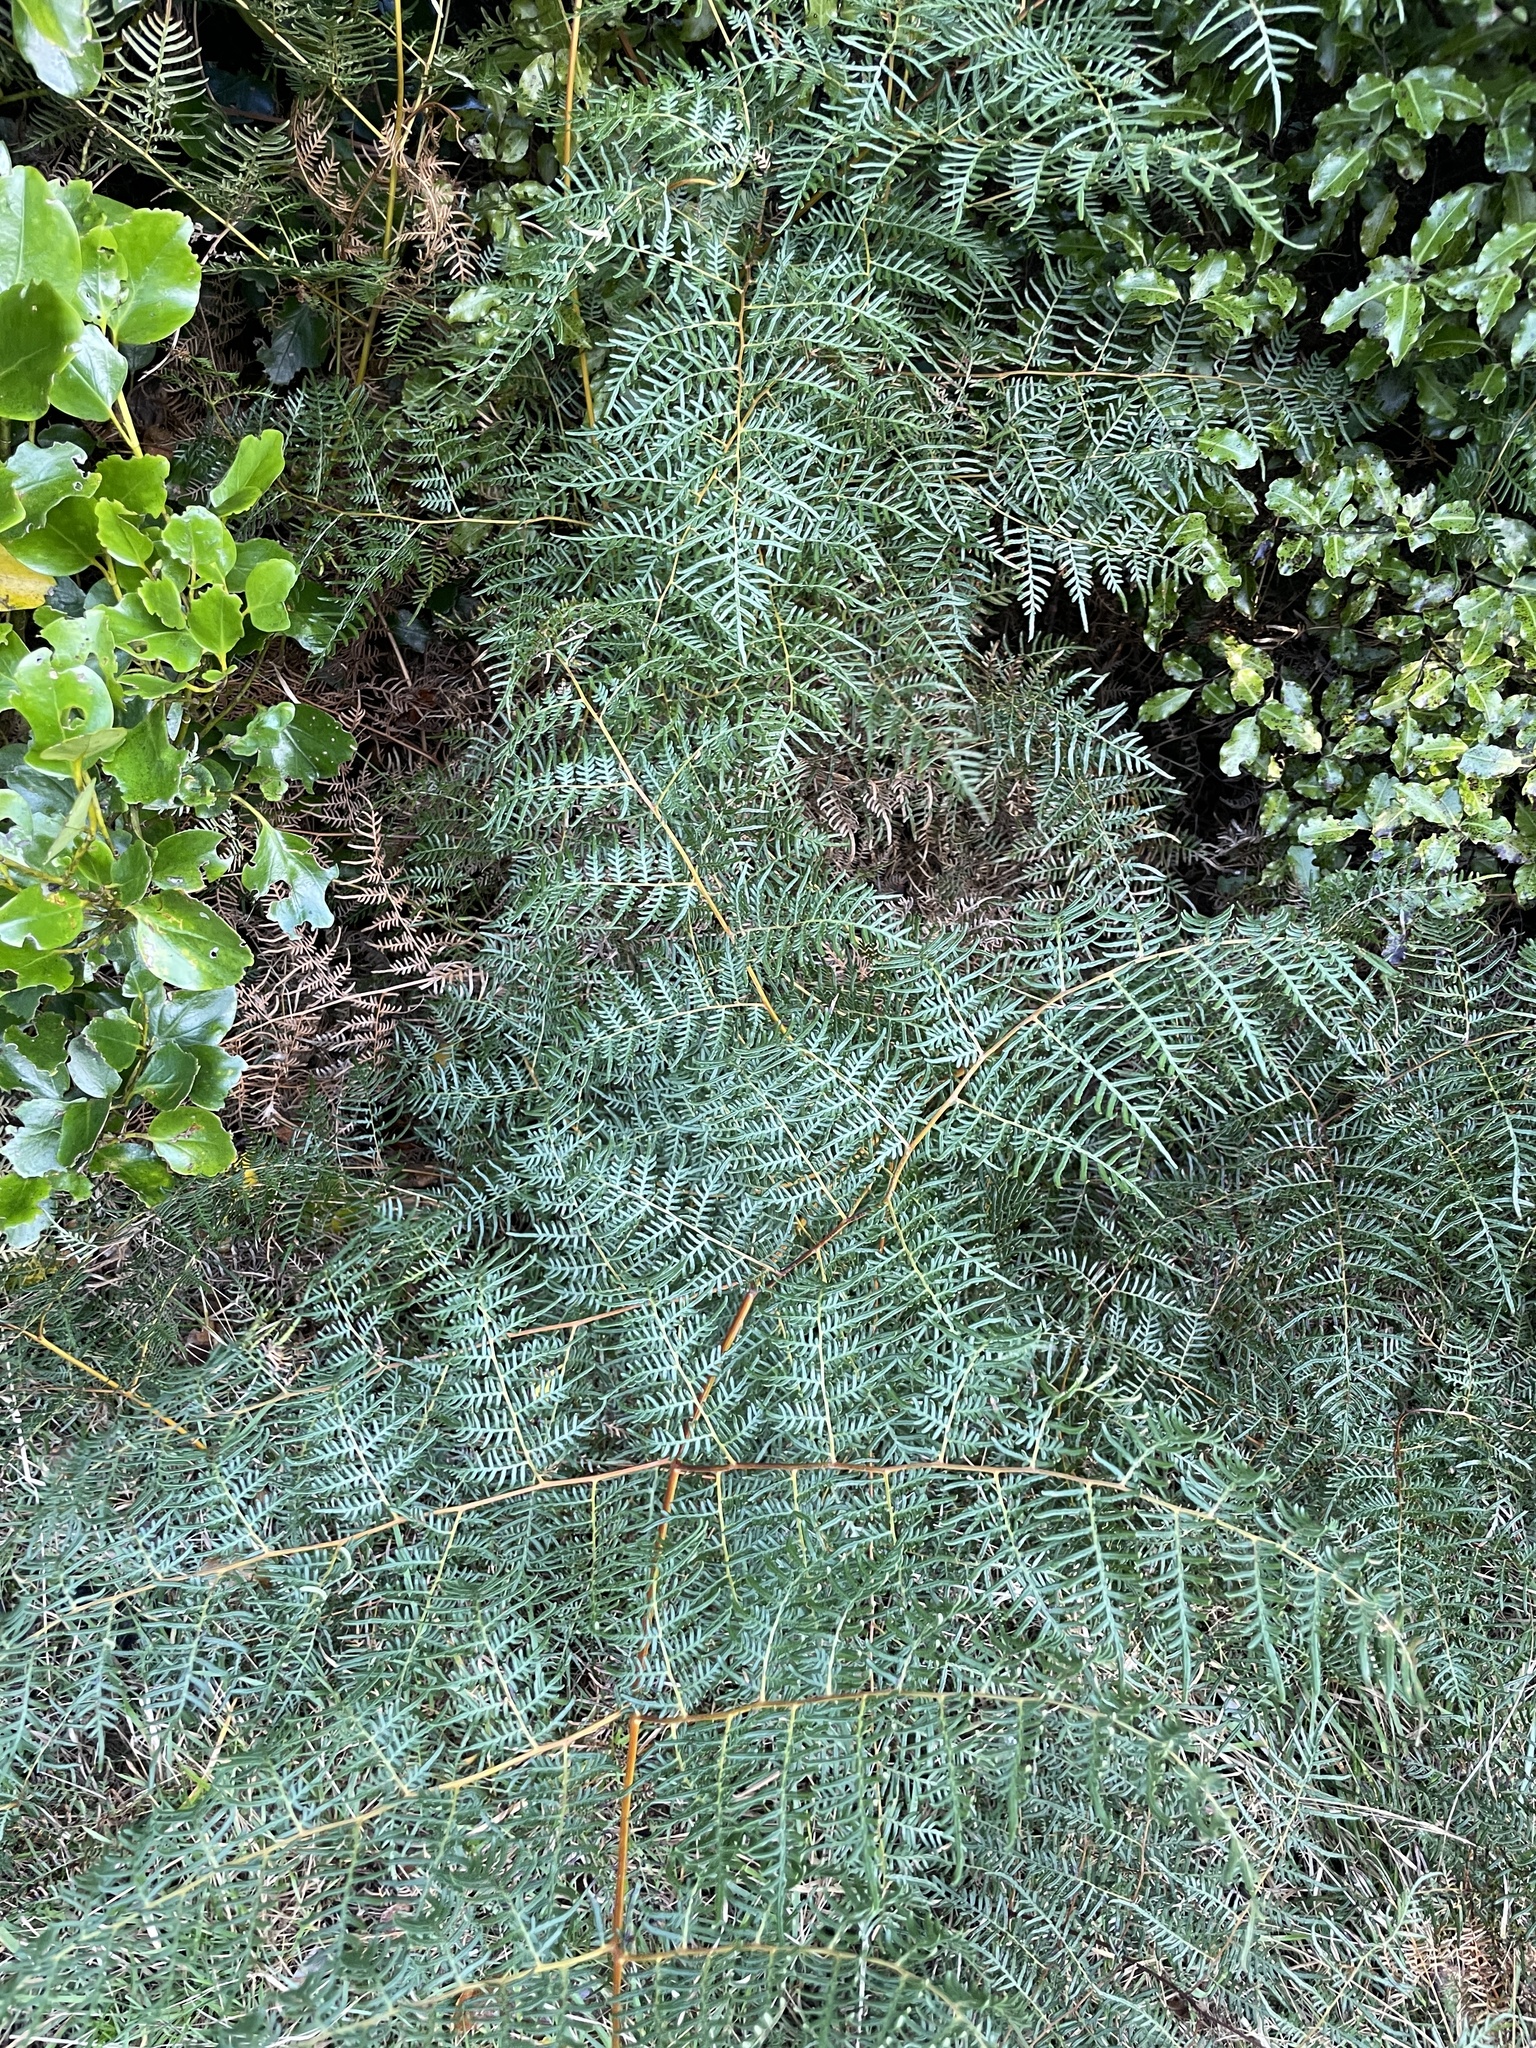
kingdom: Plantae
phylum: Tracheophyta
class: Polypodiopsida
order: Polypodiales
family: Dennstaedtiaceae
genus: Pteridium
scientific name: Pteridium esculentum
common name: Bracken fern
